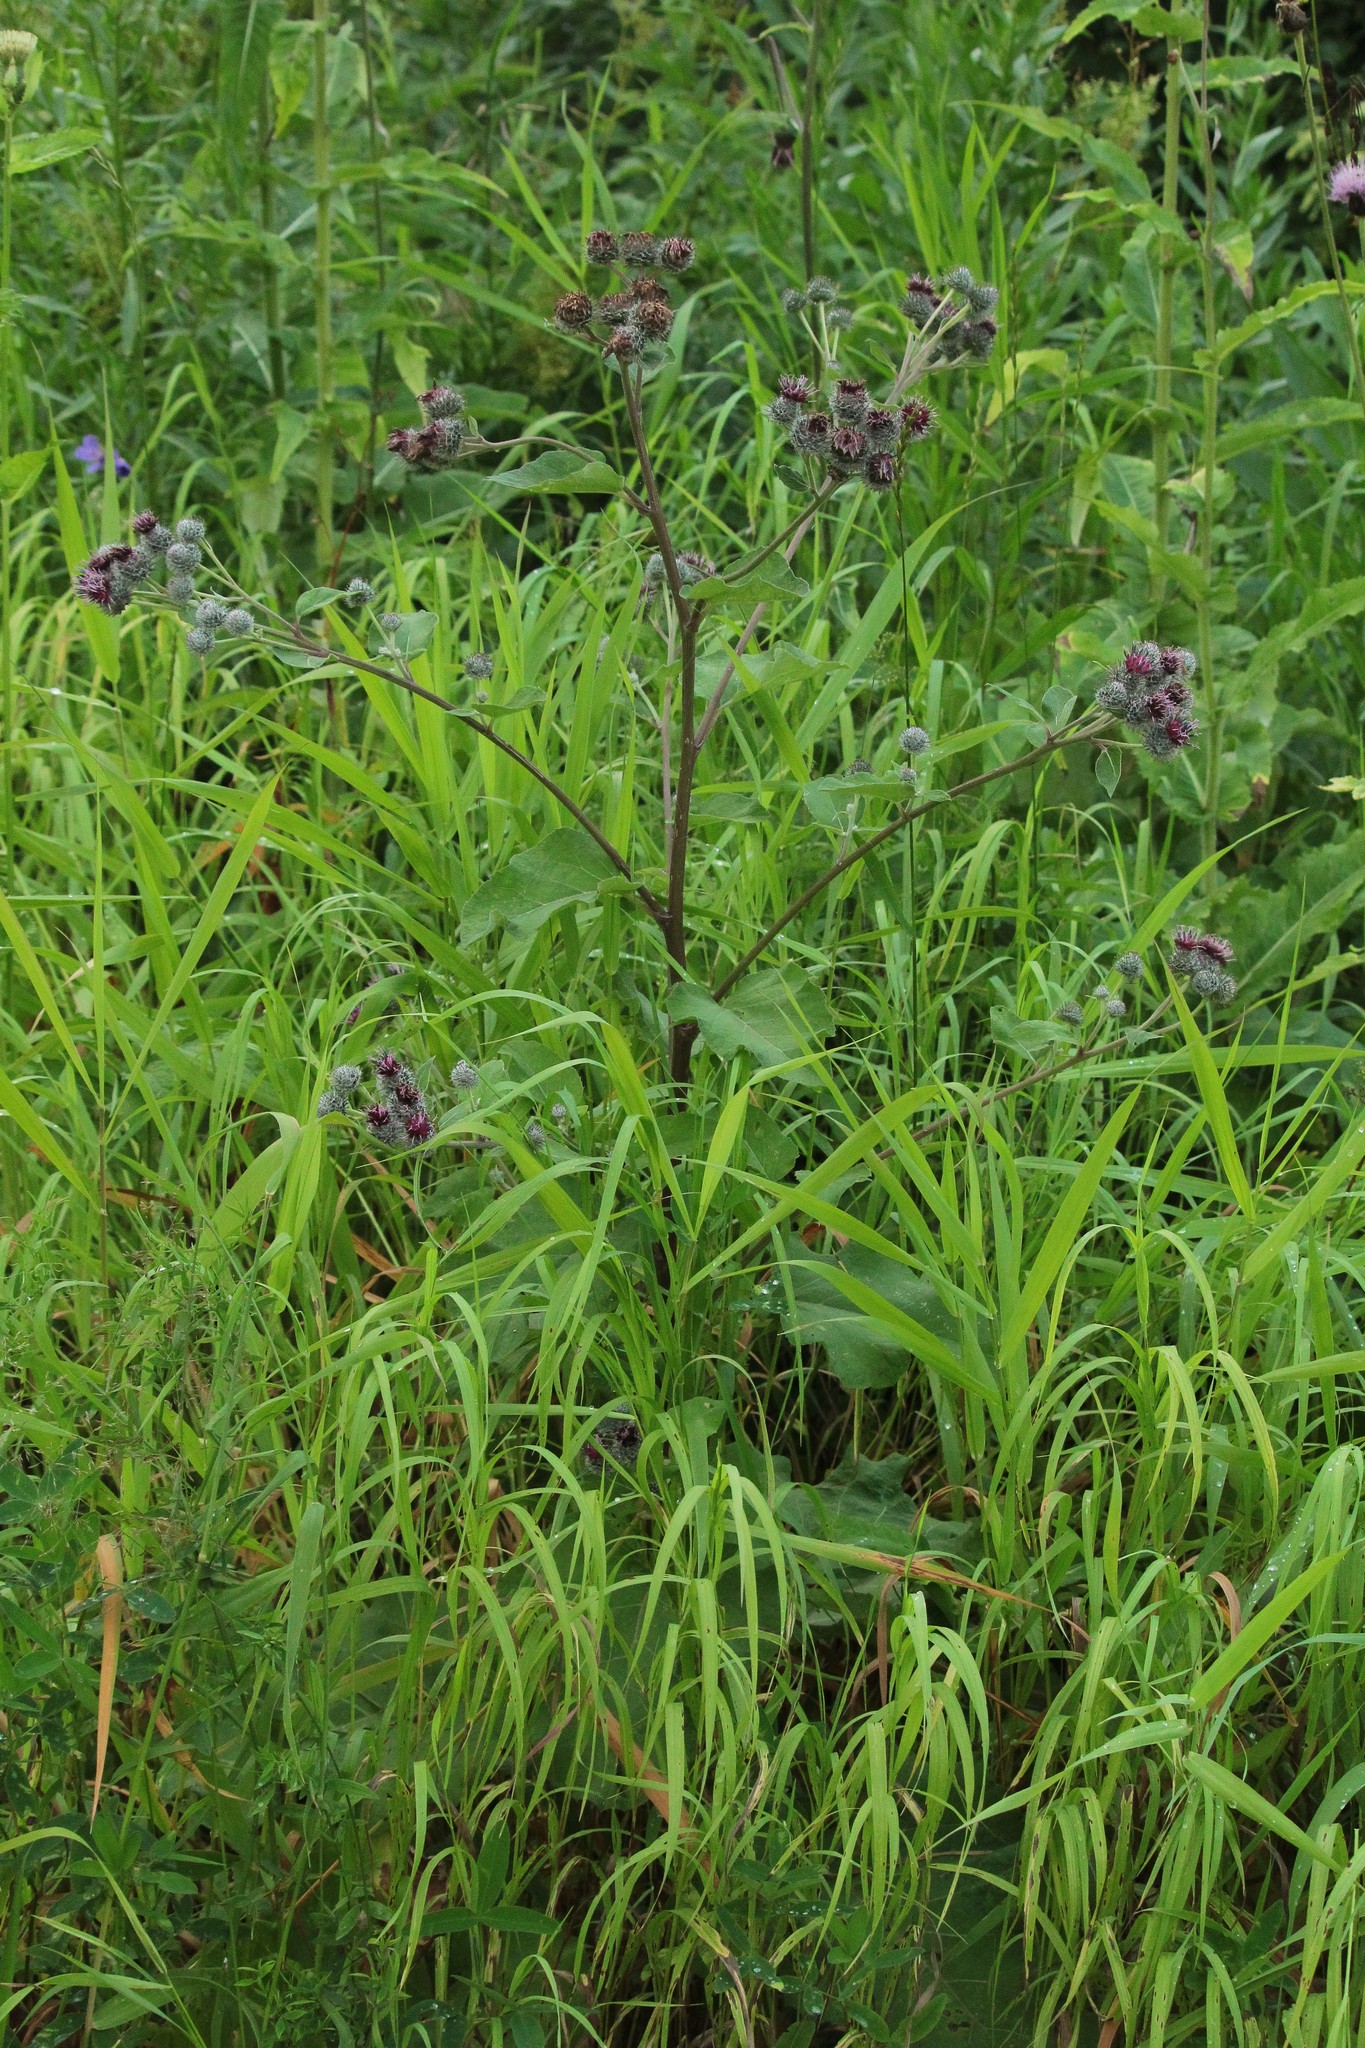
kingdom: Plantae
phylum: Tracheophyta
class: Magnoliopsida
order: Asterales
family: Asteraceae
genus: Arctium
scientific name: Arctium tomentosum
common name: Woolly burdock
